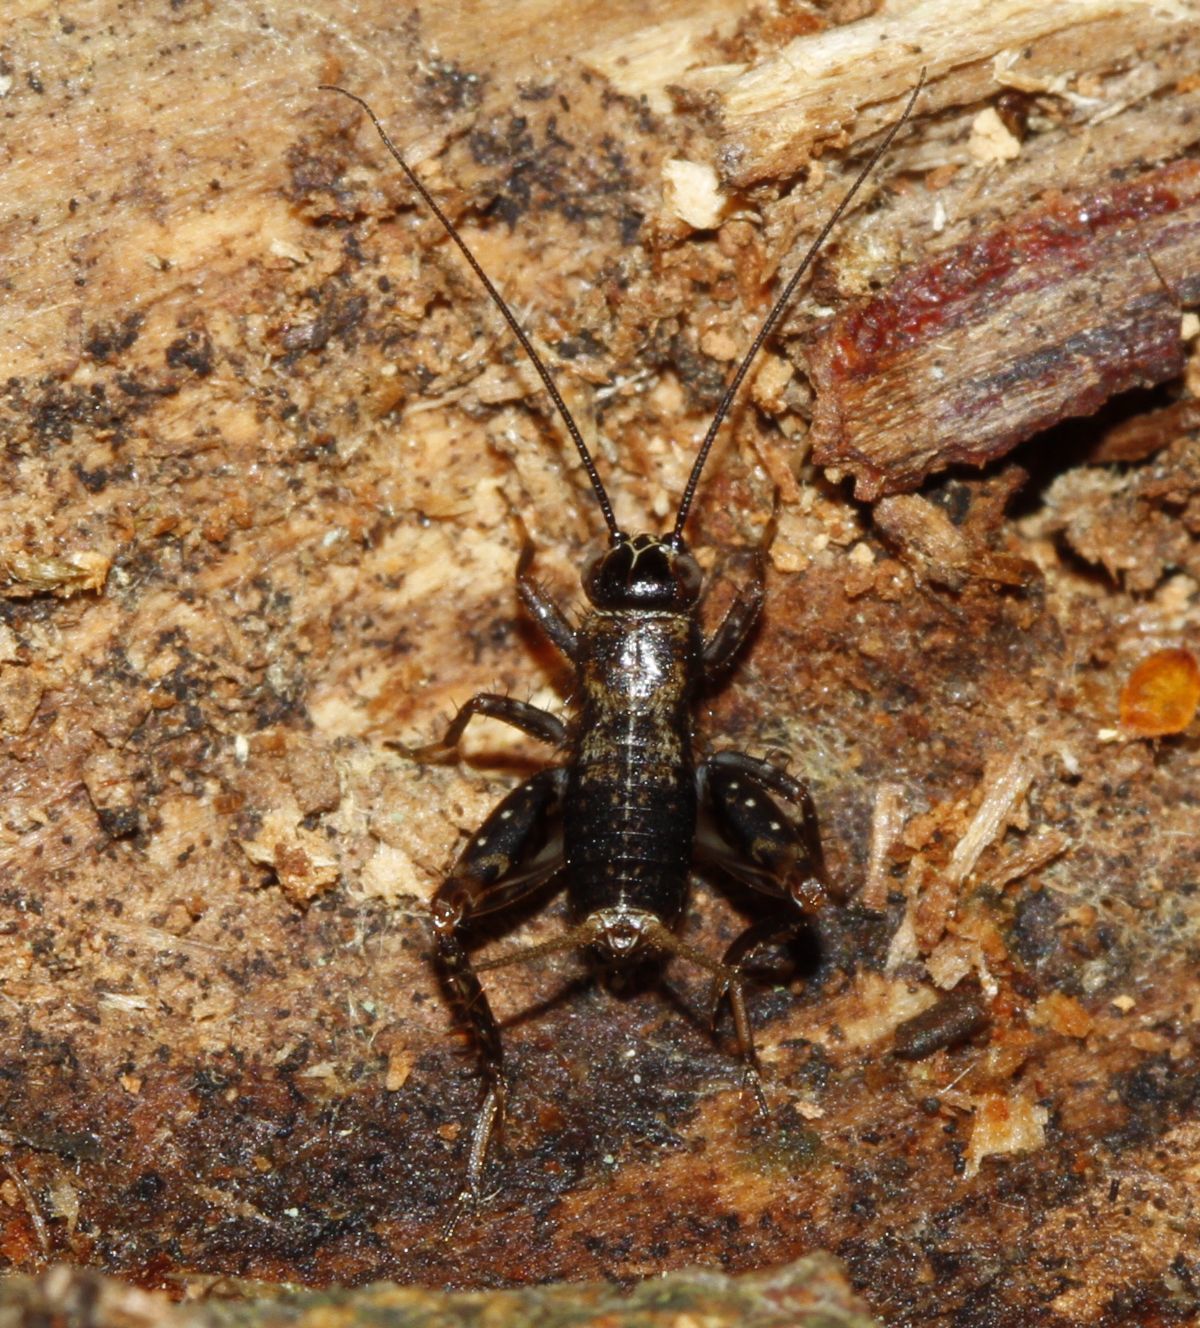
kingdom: Animalia
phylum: Arthropoda
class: Insecta
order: Orthoptera
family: Trigonidiidae
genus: Nemobius
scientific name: Nemobius sylvestris
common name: Wood-cricket
